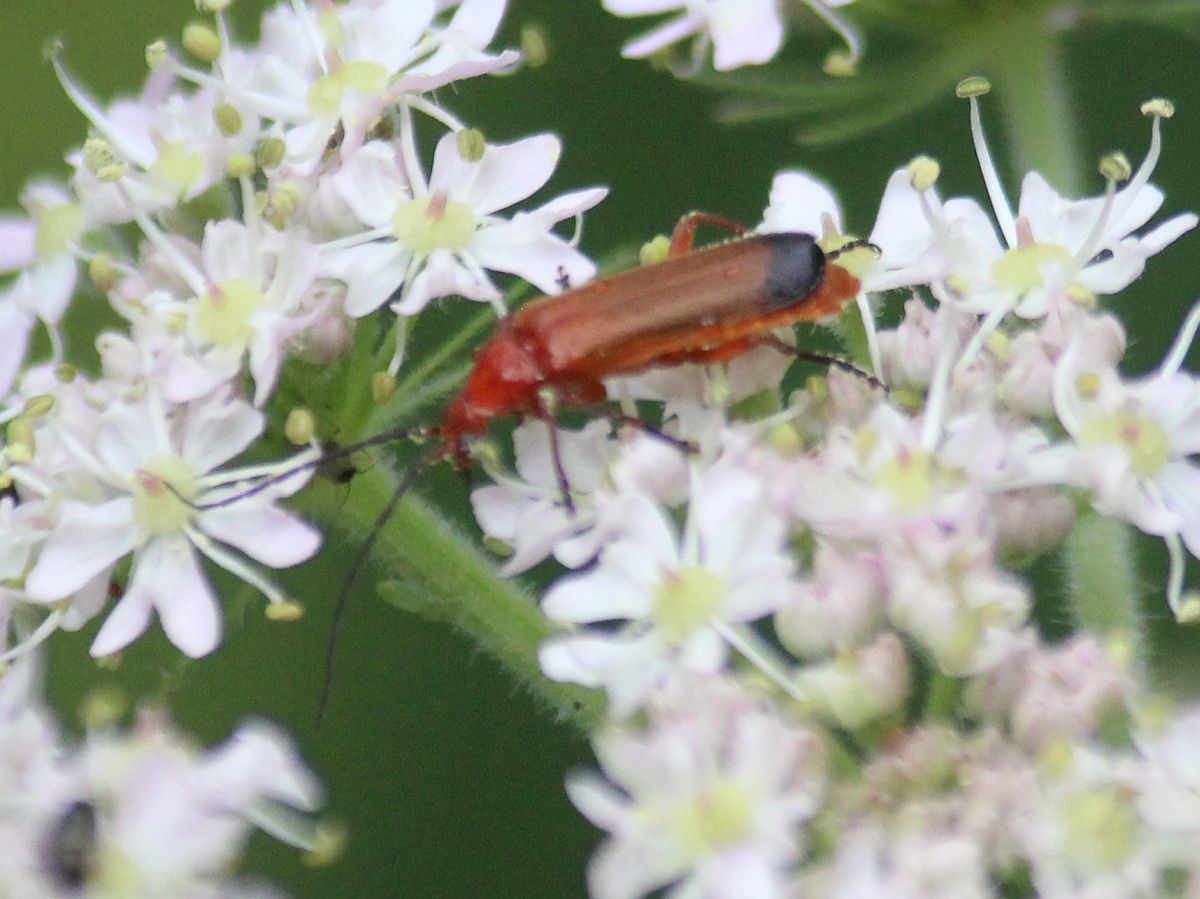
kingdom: Animalia
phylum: Arthropoda
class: Insecta
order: Coleoptera
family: Cantharidae
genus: Rhagonycha
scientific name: Rhagonycha fulva
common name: Common red soldier beetle
